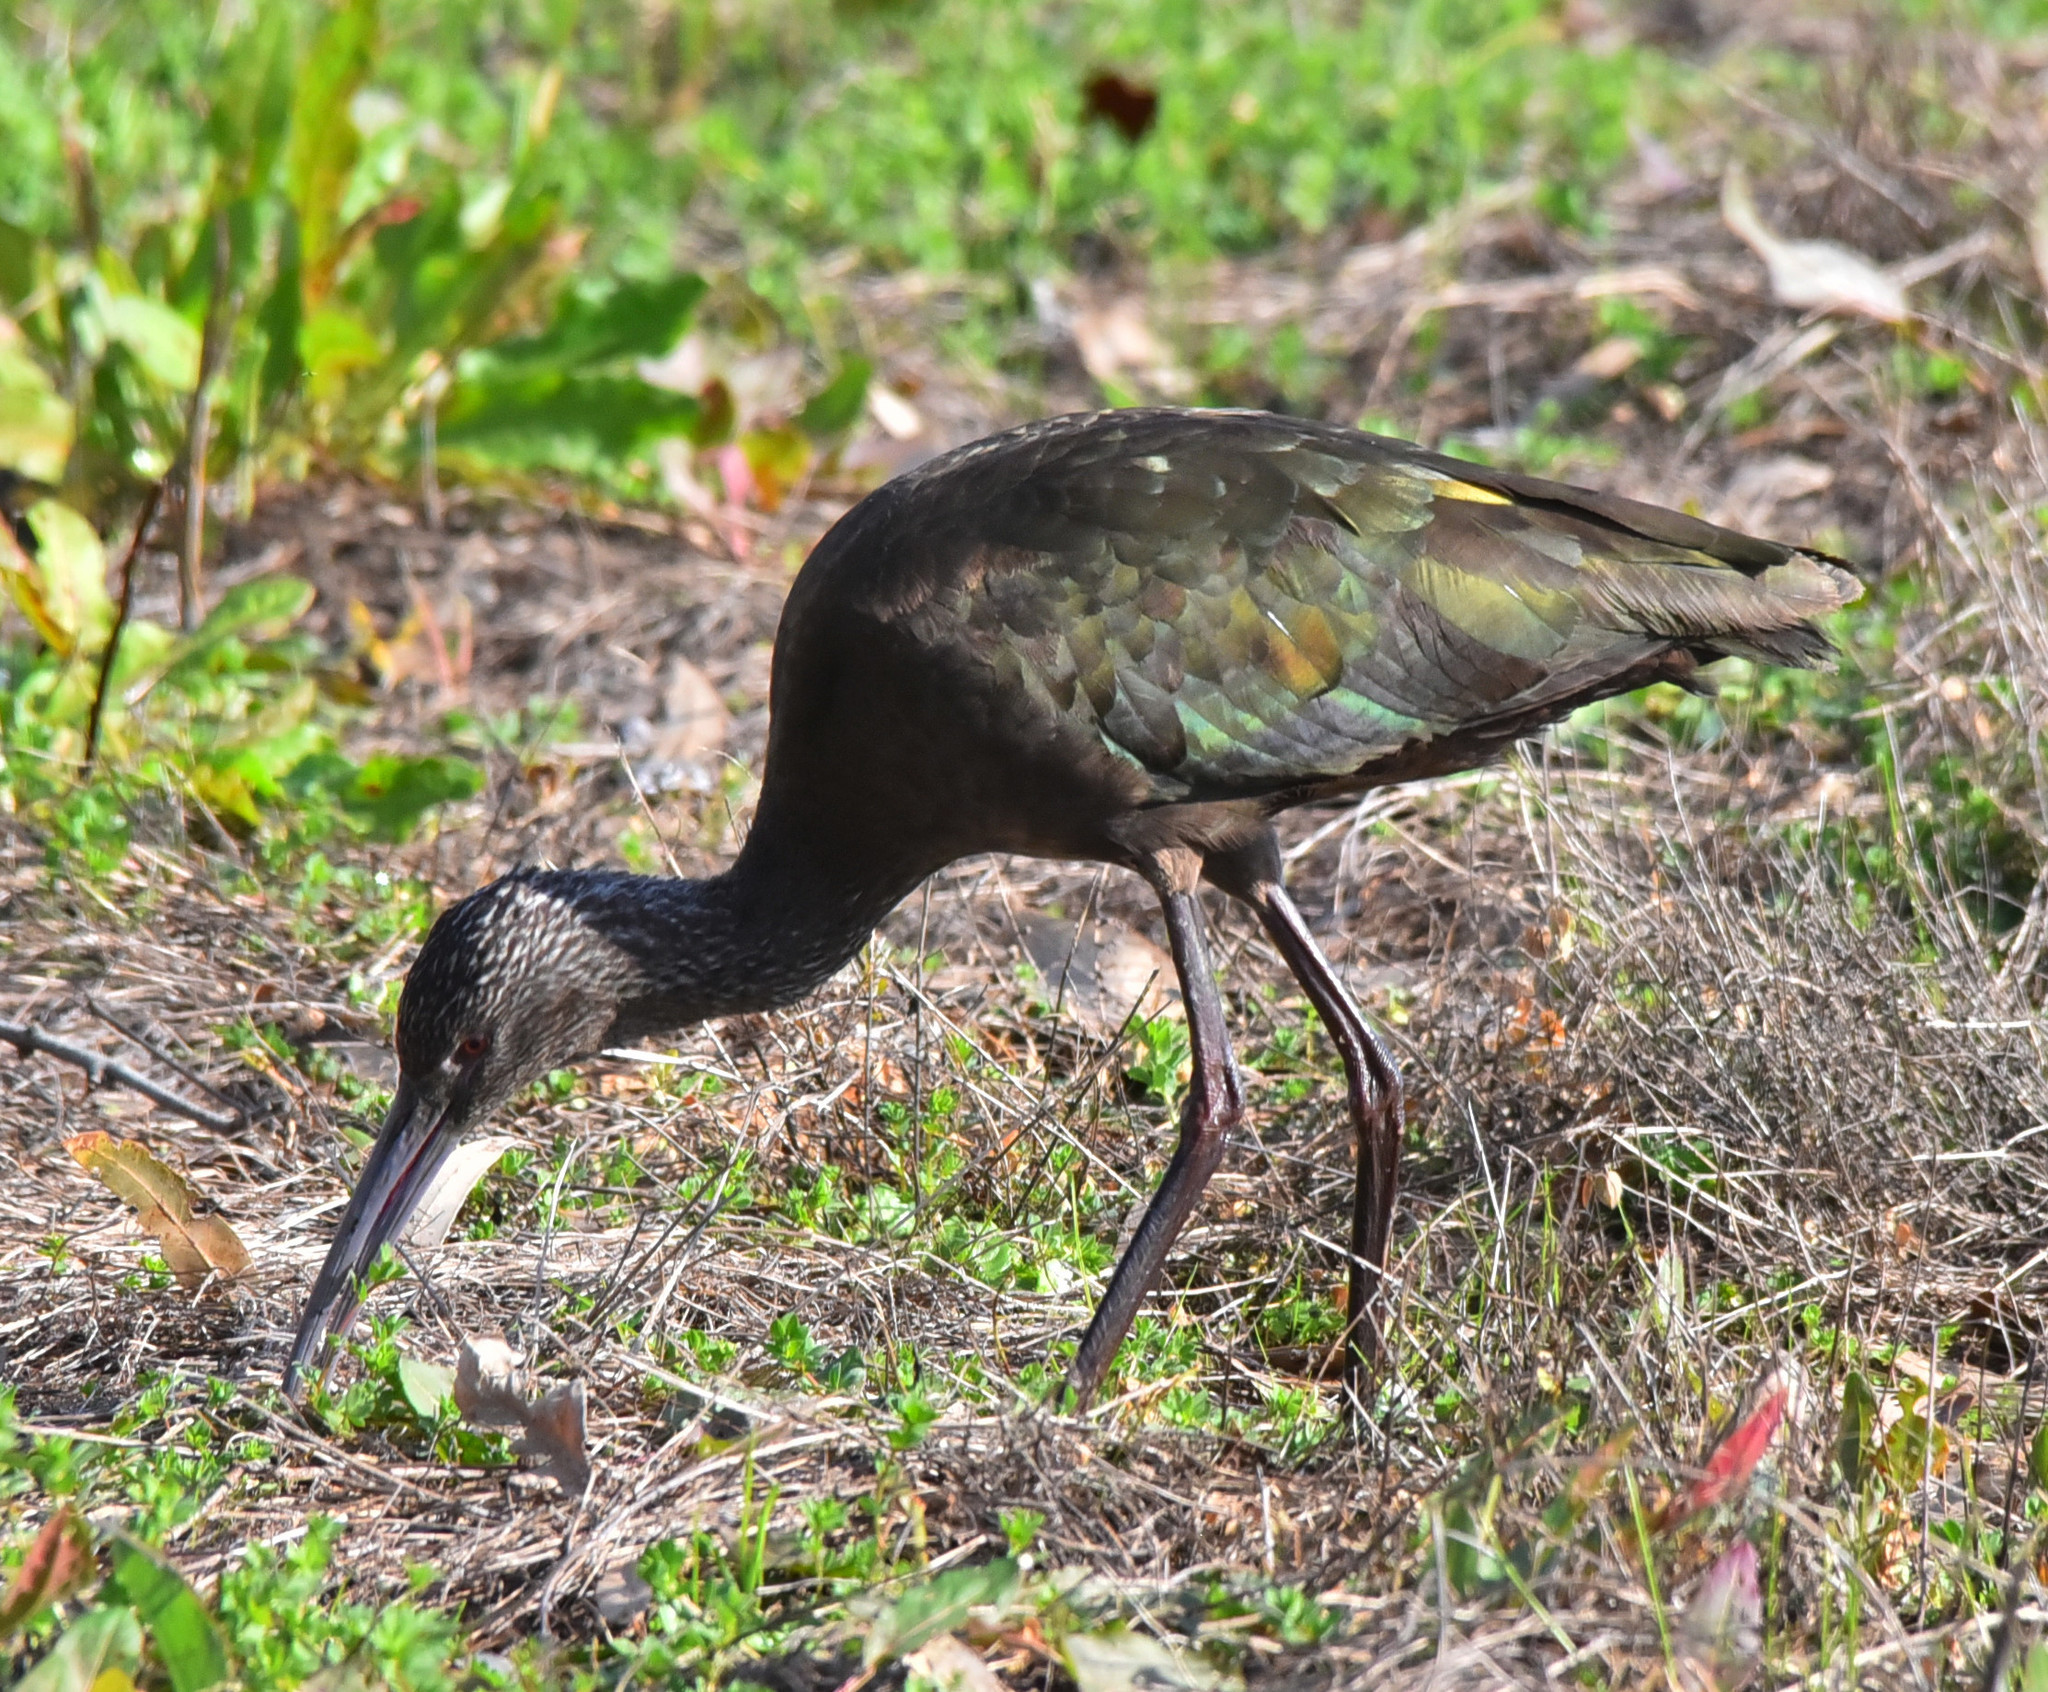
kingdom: Animalia
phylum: Chordata
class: Aves
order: Pelecaniformes
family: Threskiornithidae
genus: Plegadis
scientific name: Plegadis chihi
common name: White-faced ibis
